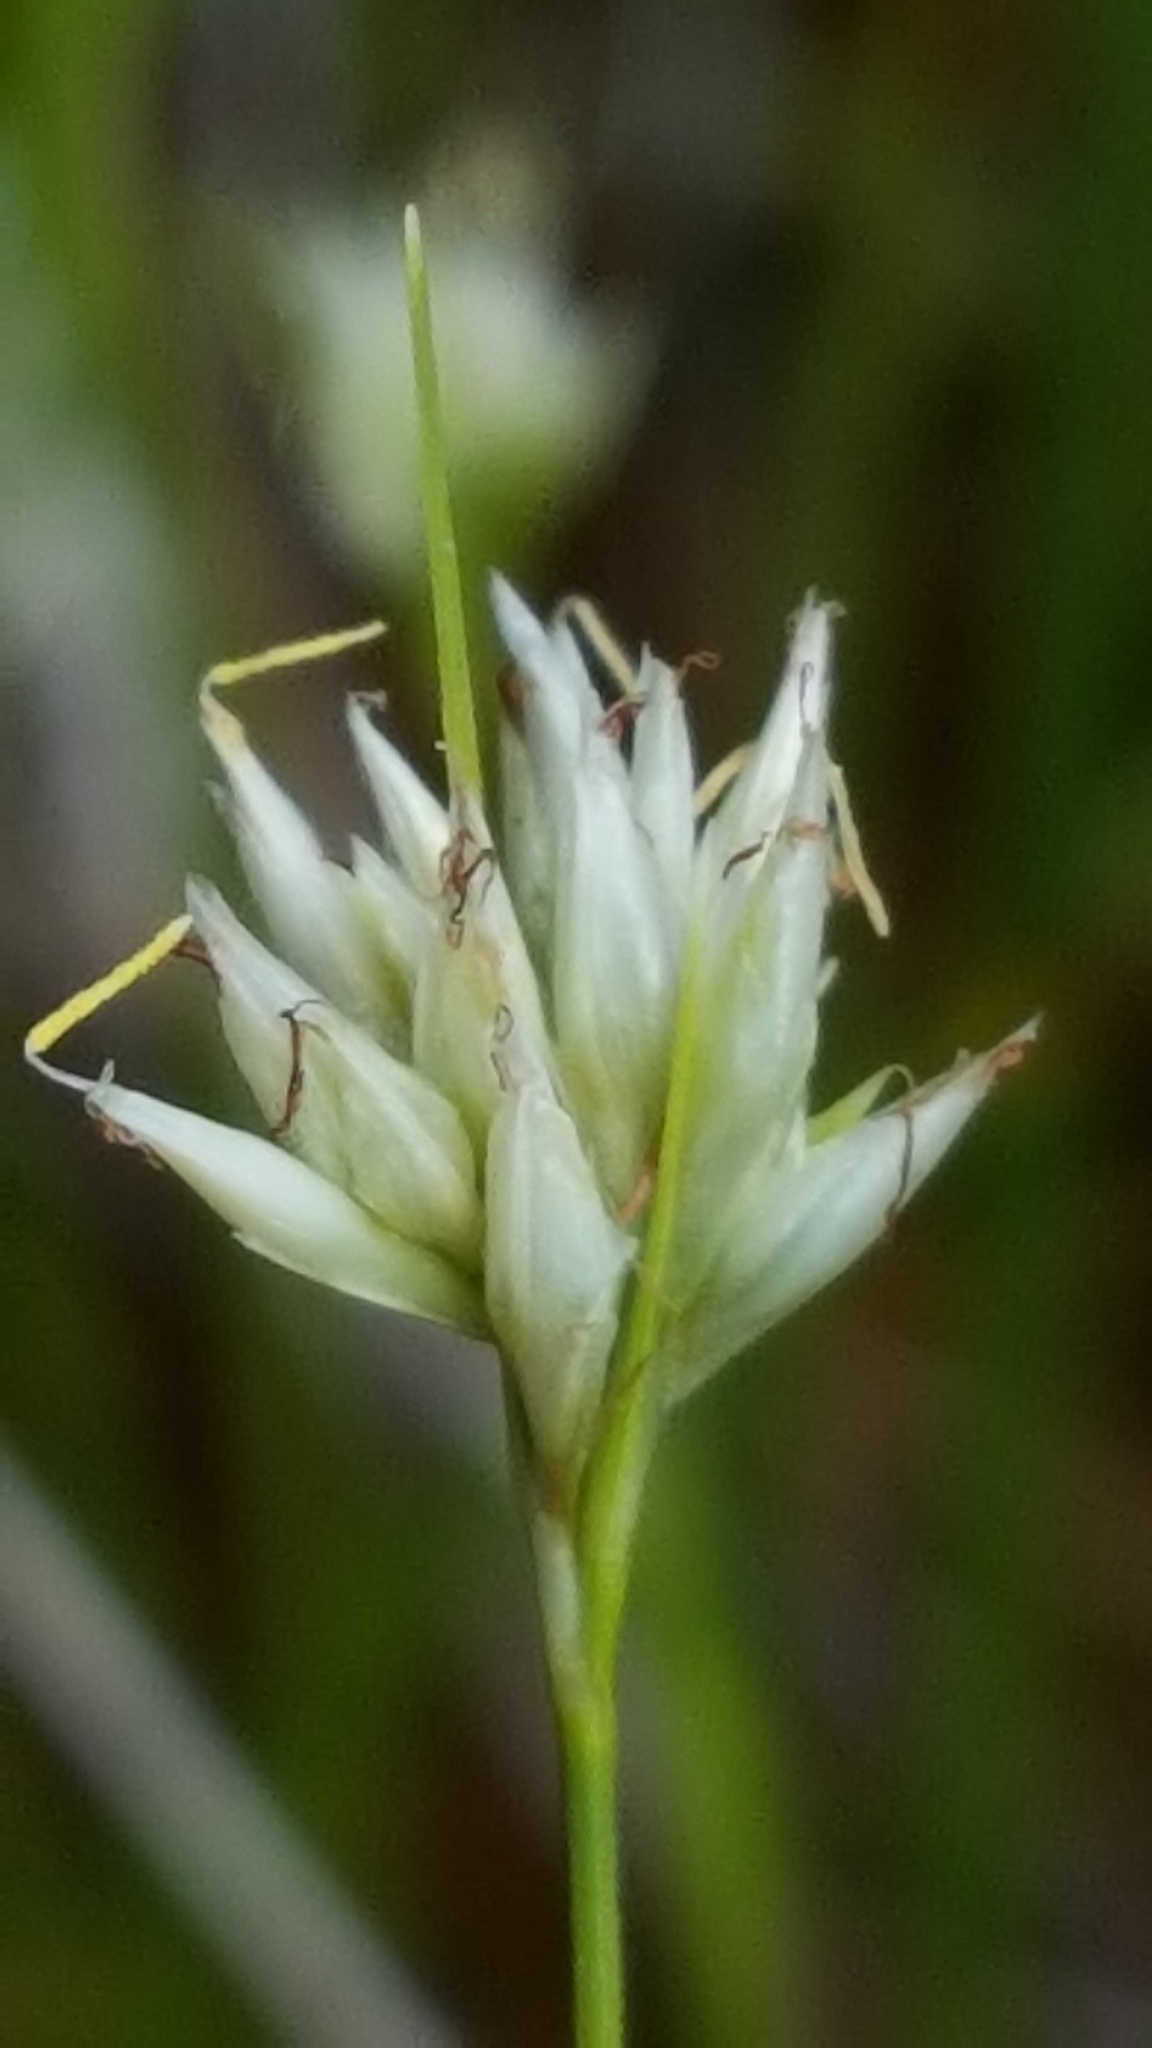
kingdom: Plantae
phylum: Tracheophyta
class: Liliopsida
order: Poales
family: Cyperaceae
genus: Rhynchospora
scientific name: Rhynchospora alba
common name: White beak-sedge
